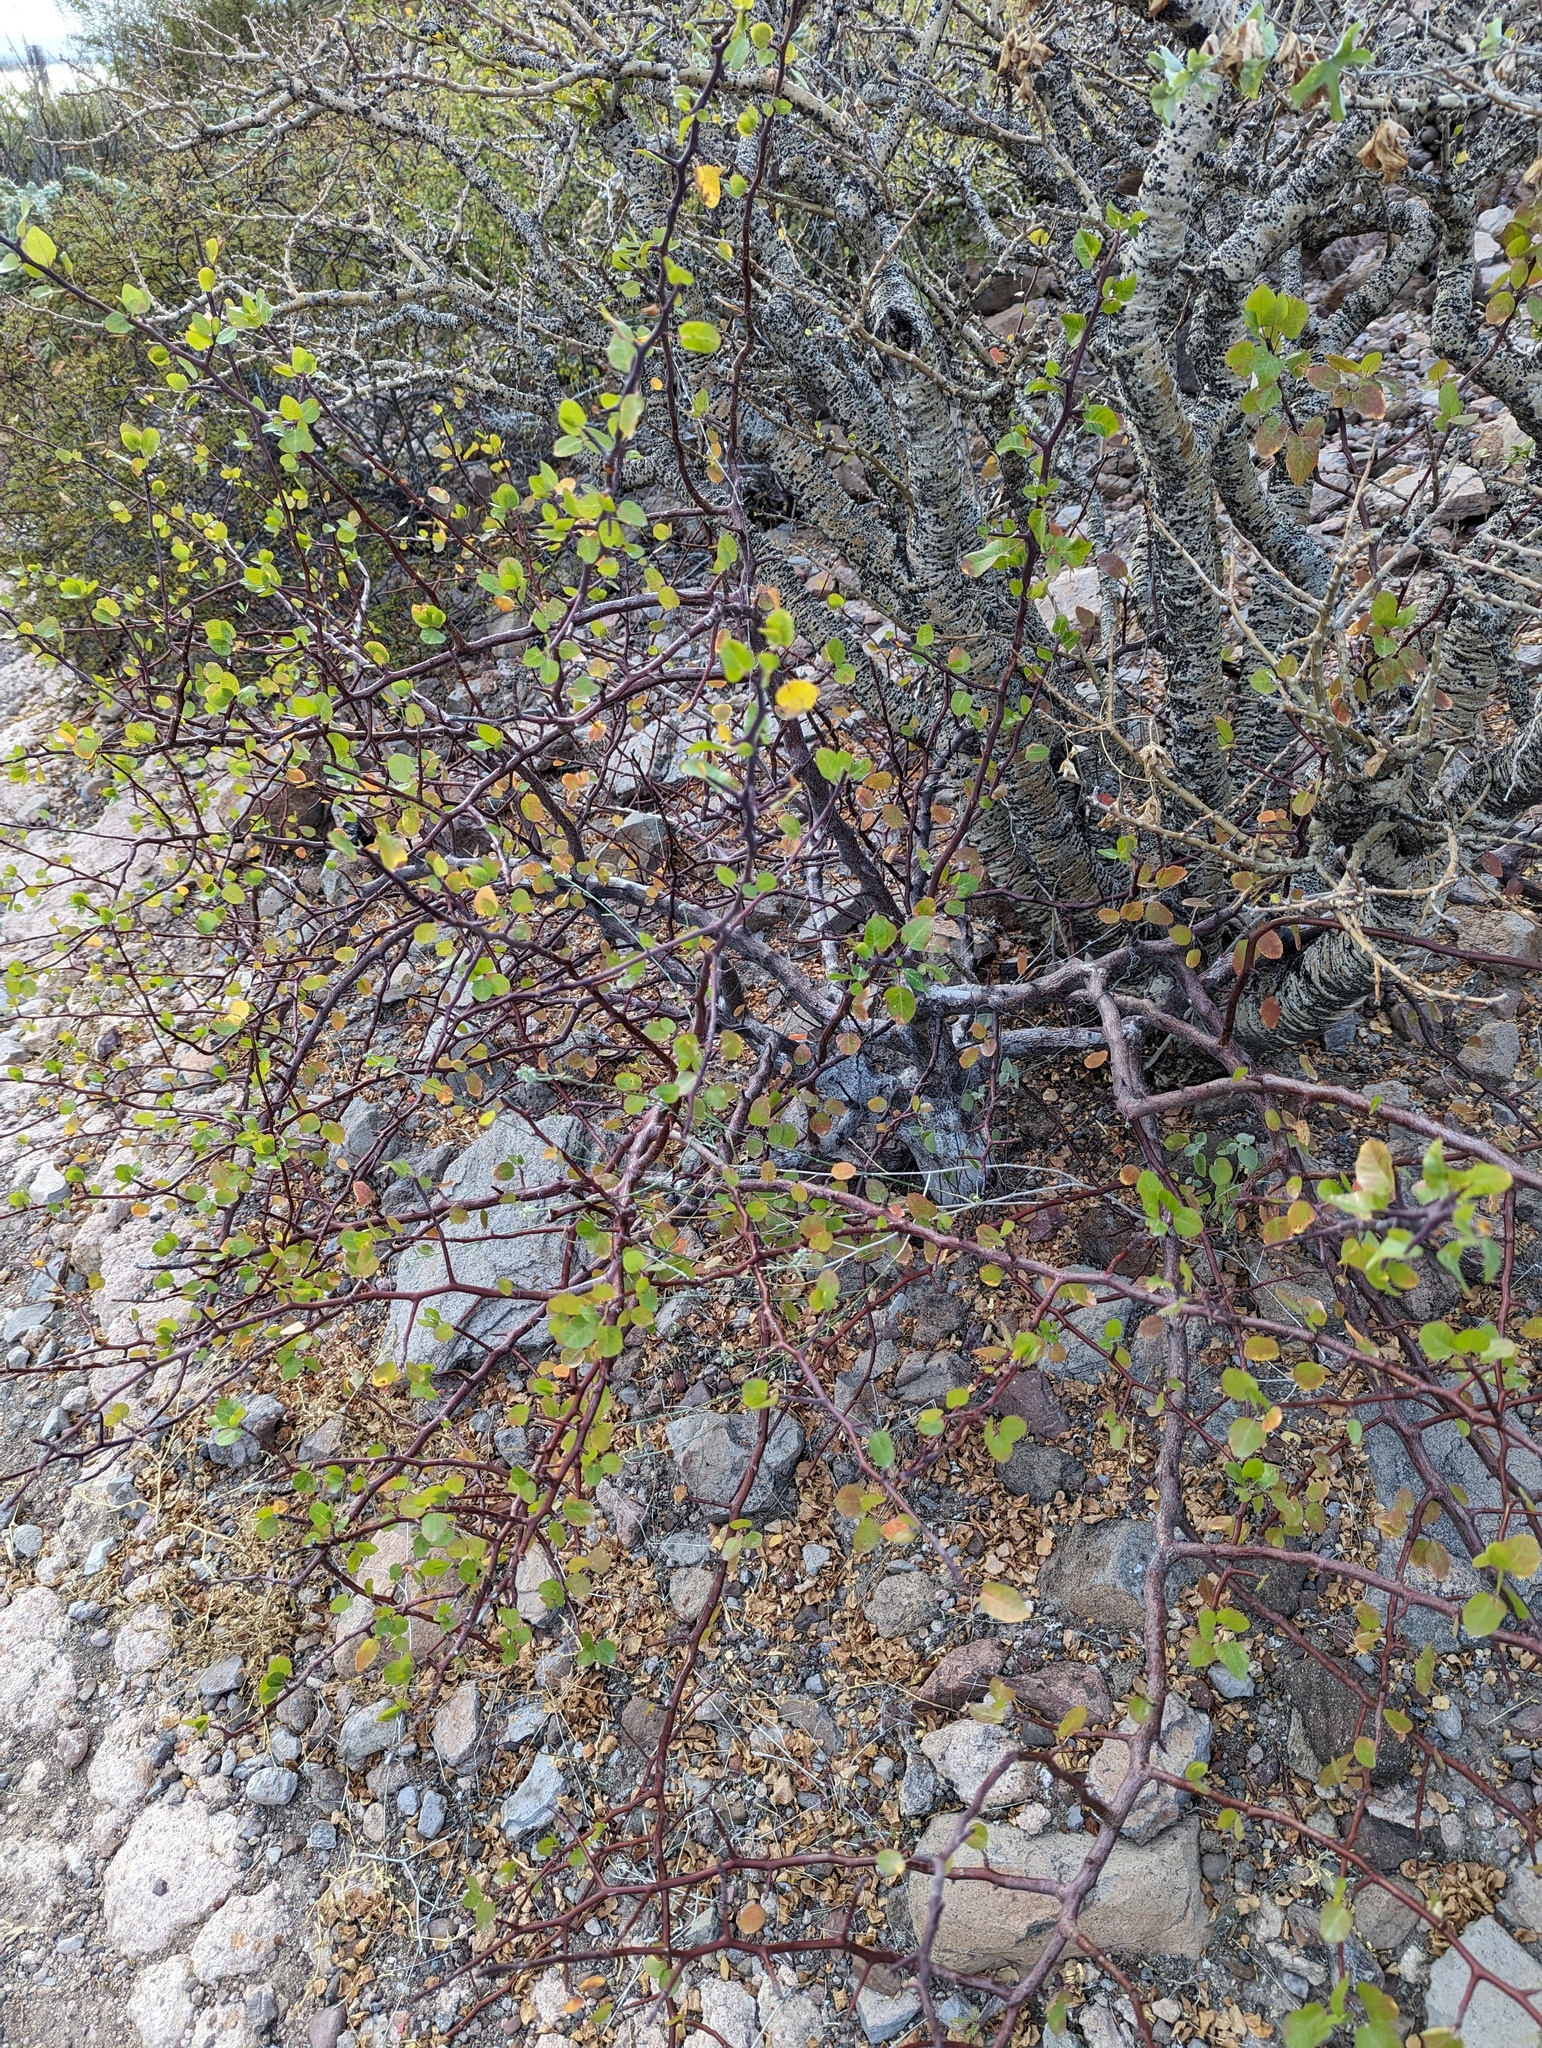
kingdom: Plantae
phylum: Tracheophyta
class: Magnoliopsida
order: Sapindales
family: Burseraceae
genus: Bursera
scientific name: Bursera epinnata
